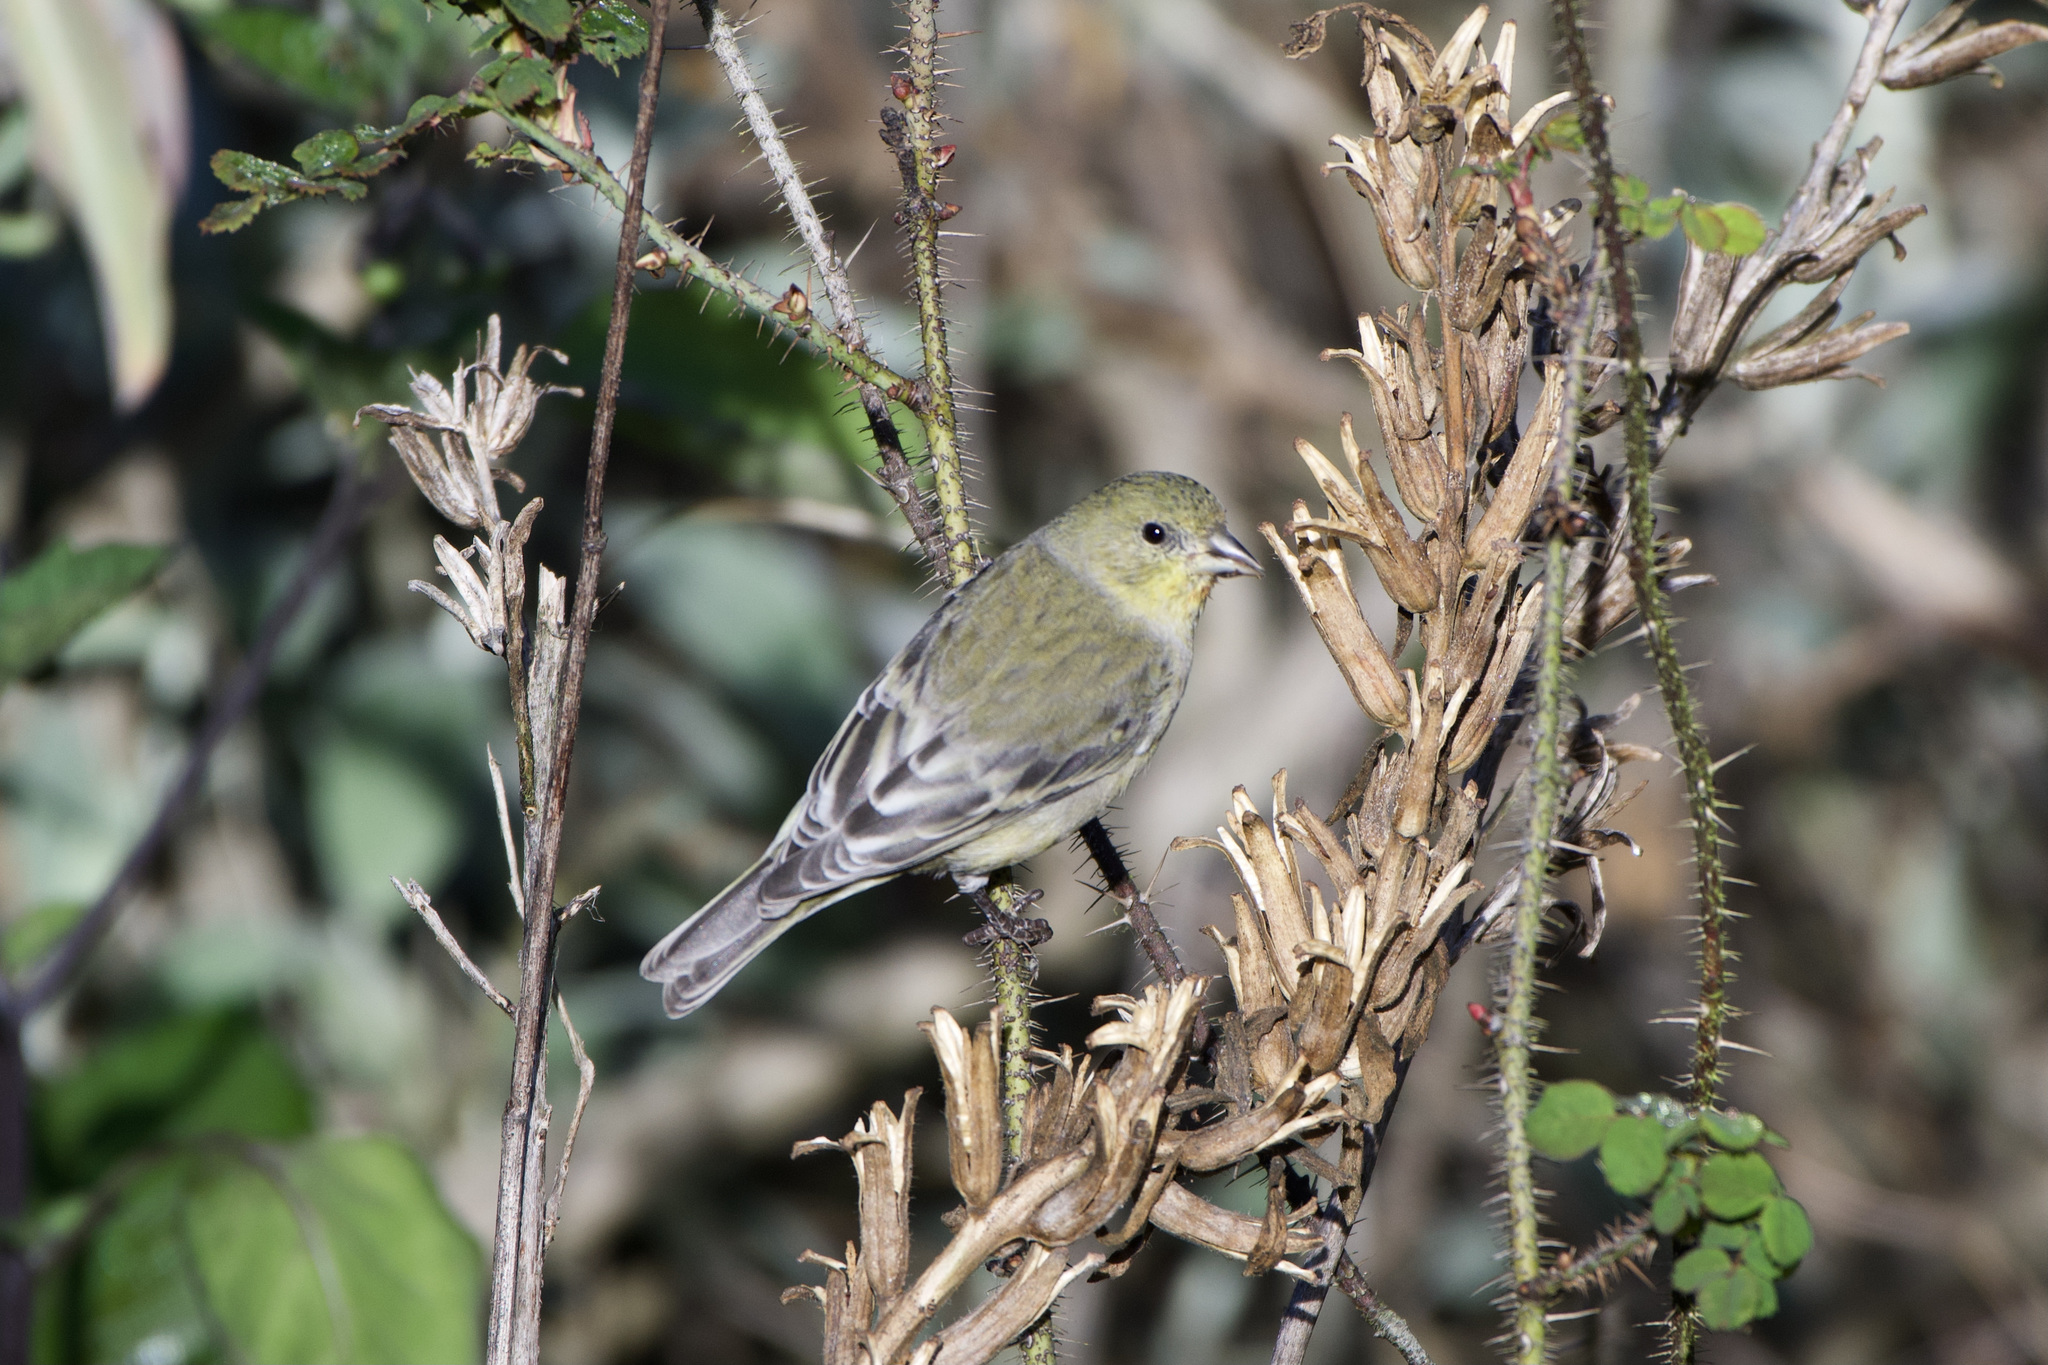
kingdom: Animalia
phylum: Chordata
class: Aves
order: Passeriformes
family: Fringillidae
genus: Spinus
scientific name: Spinus psaltria
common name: Lesser goldfinch
